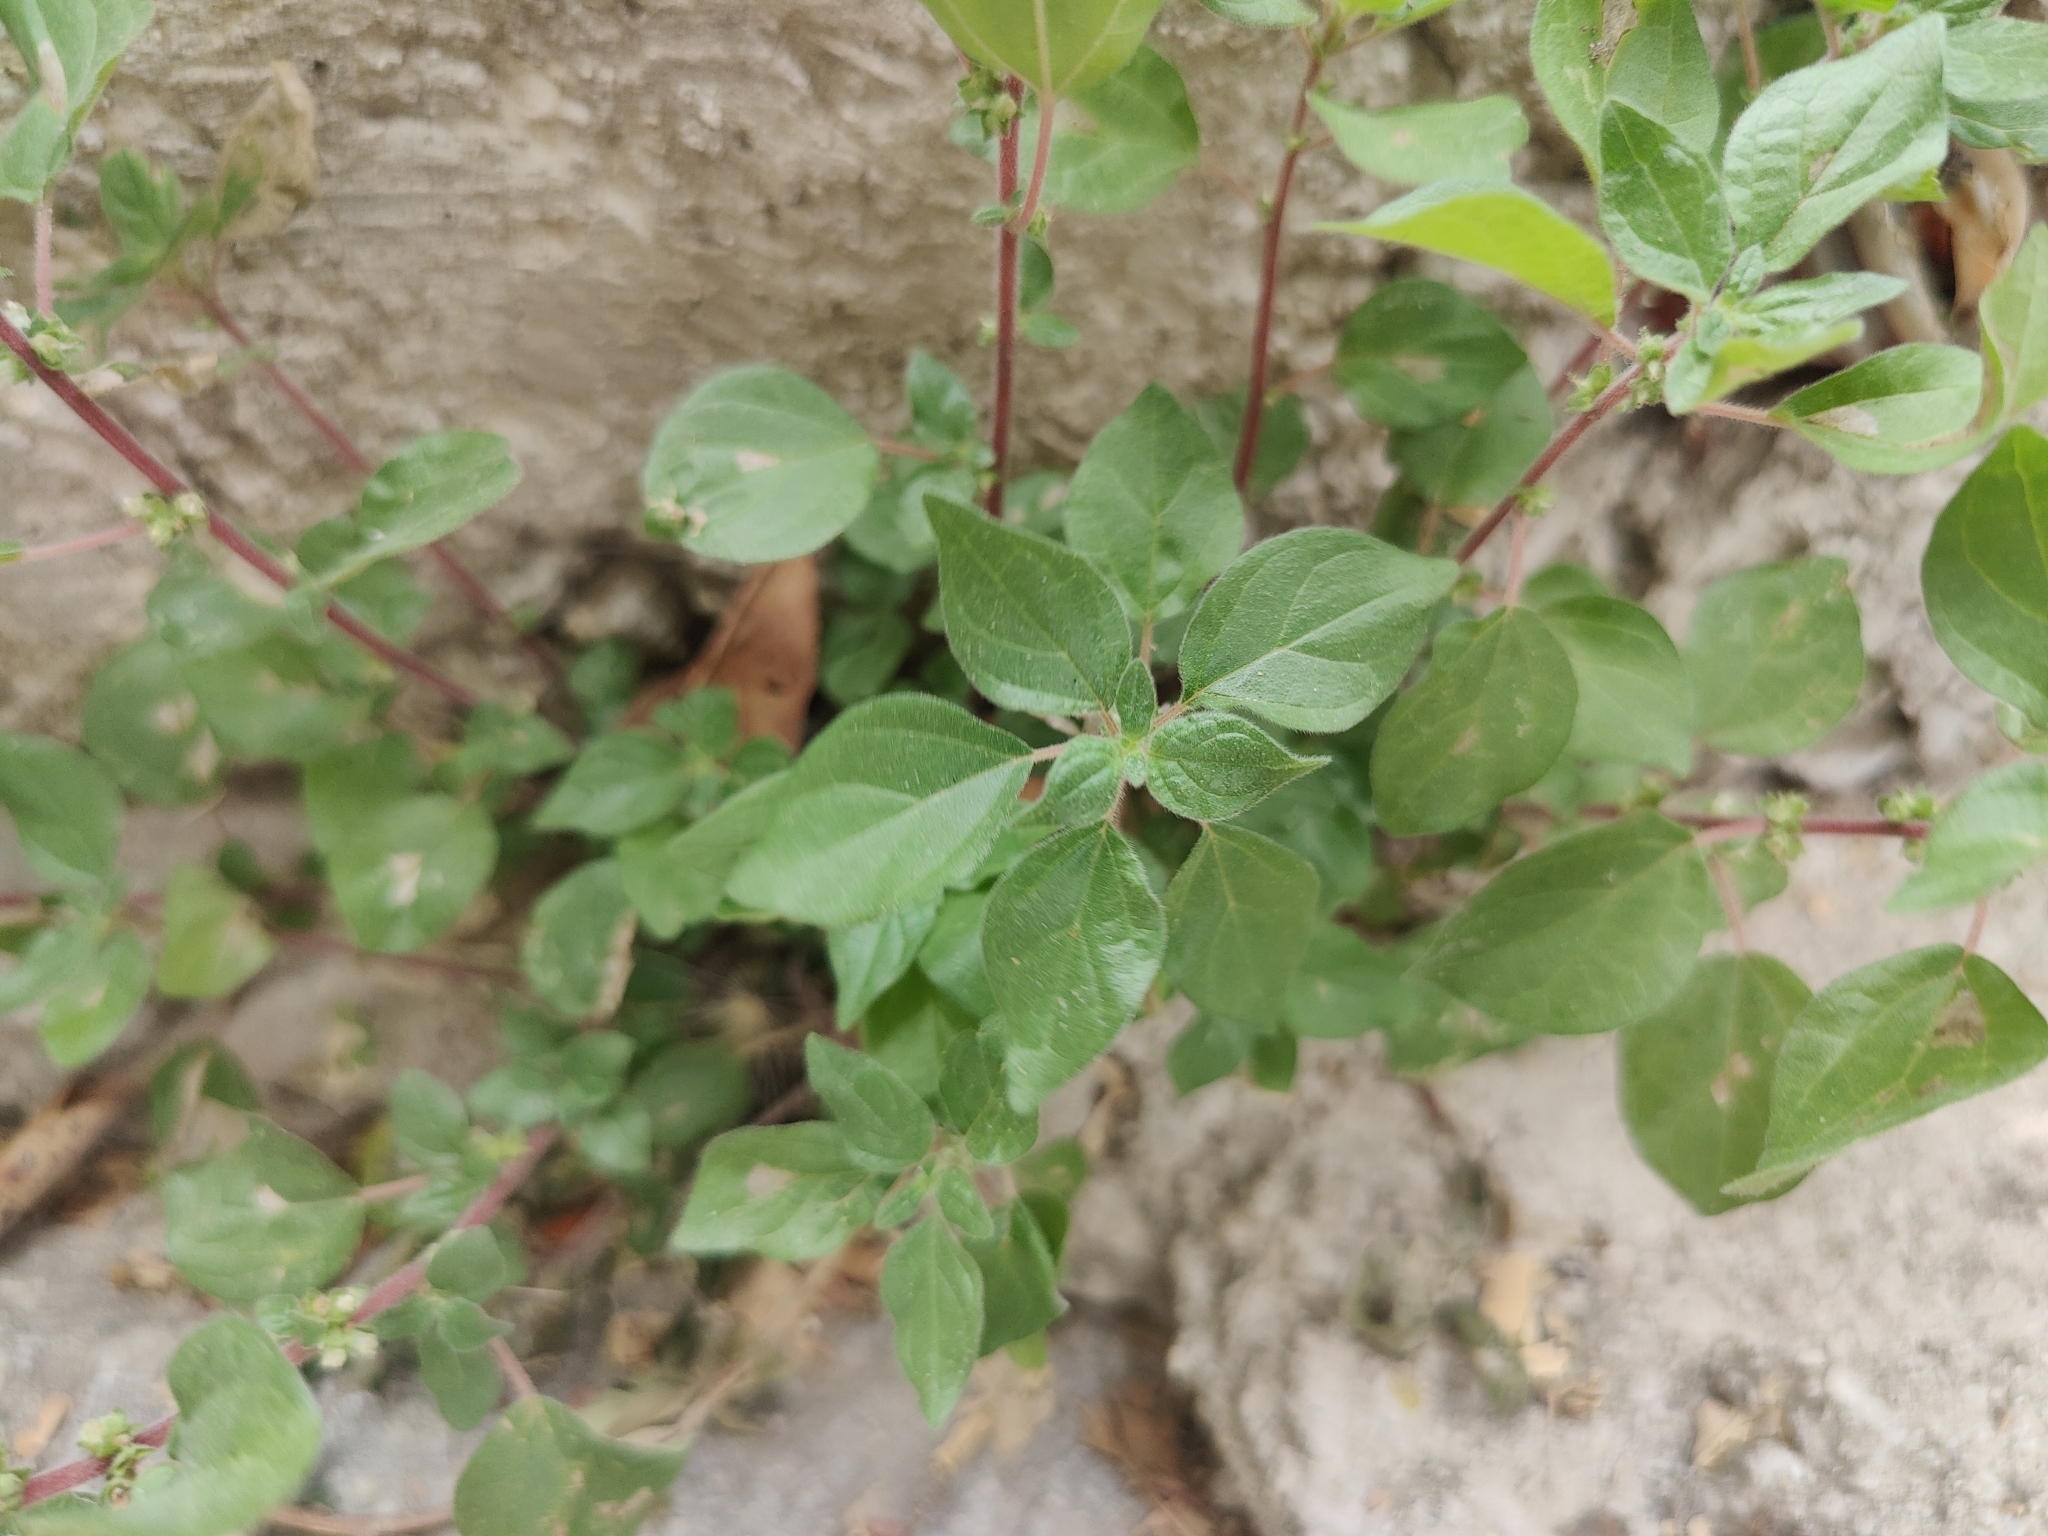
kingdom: Plantae
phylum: Tracheophyta
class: Magnoliopsida
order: Rosales
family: Urticaceae
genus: Parietaria
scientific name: Parietaria judaica
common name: Pellitory-of-the-wall
